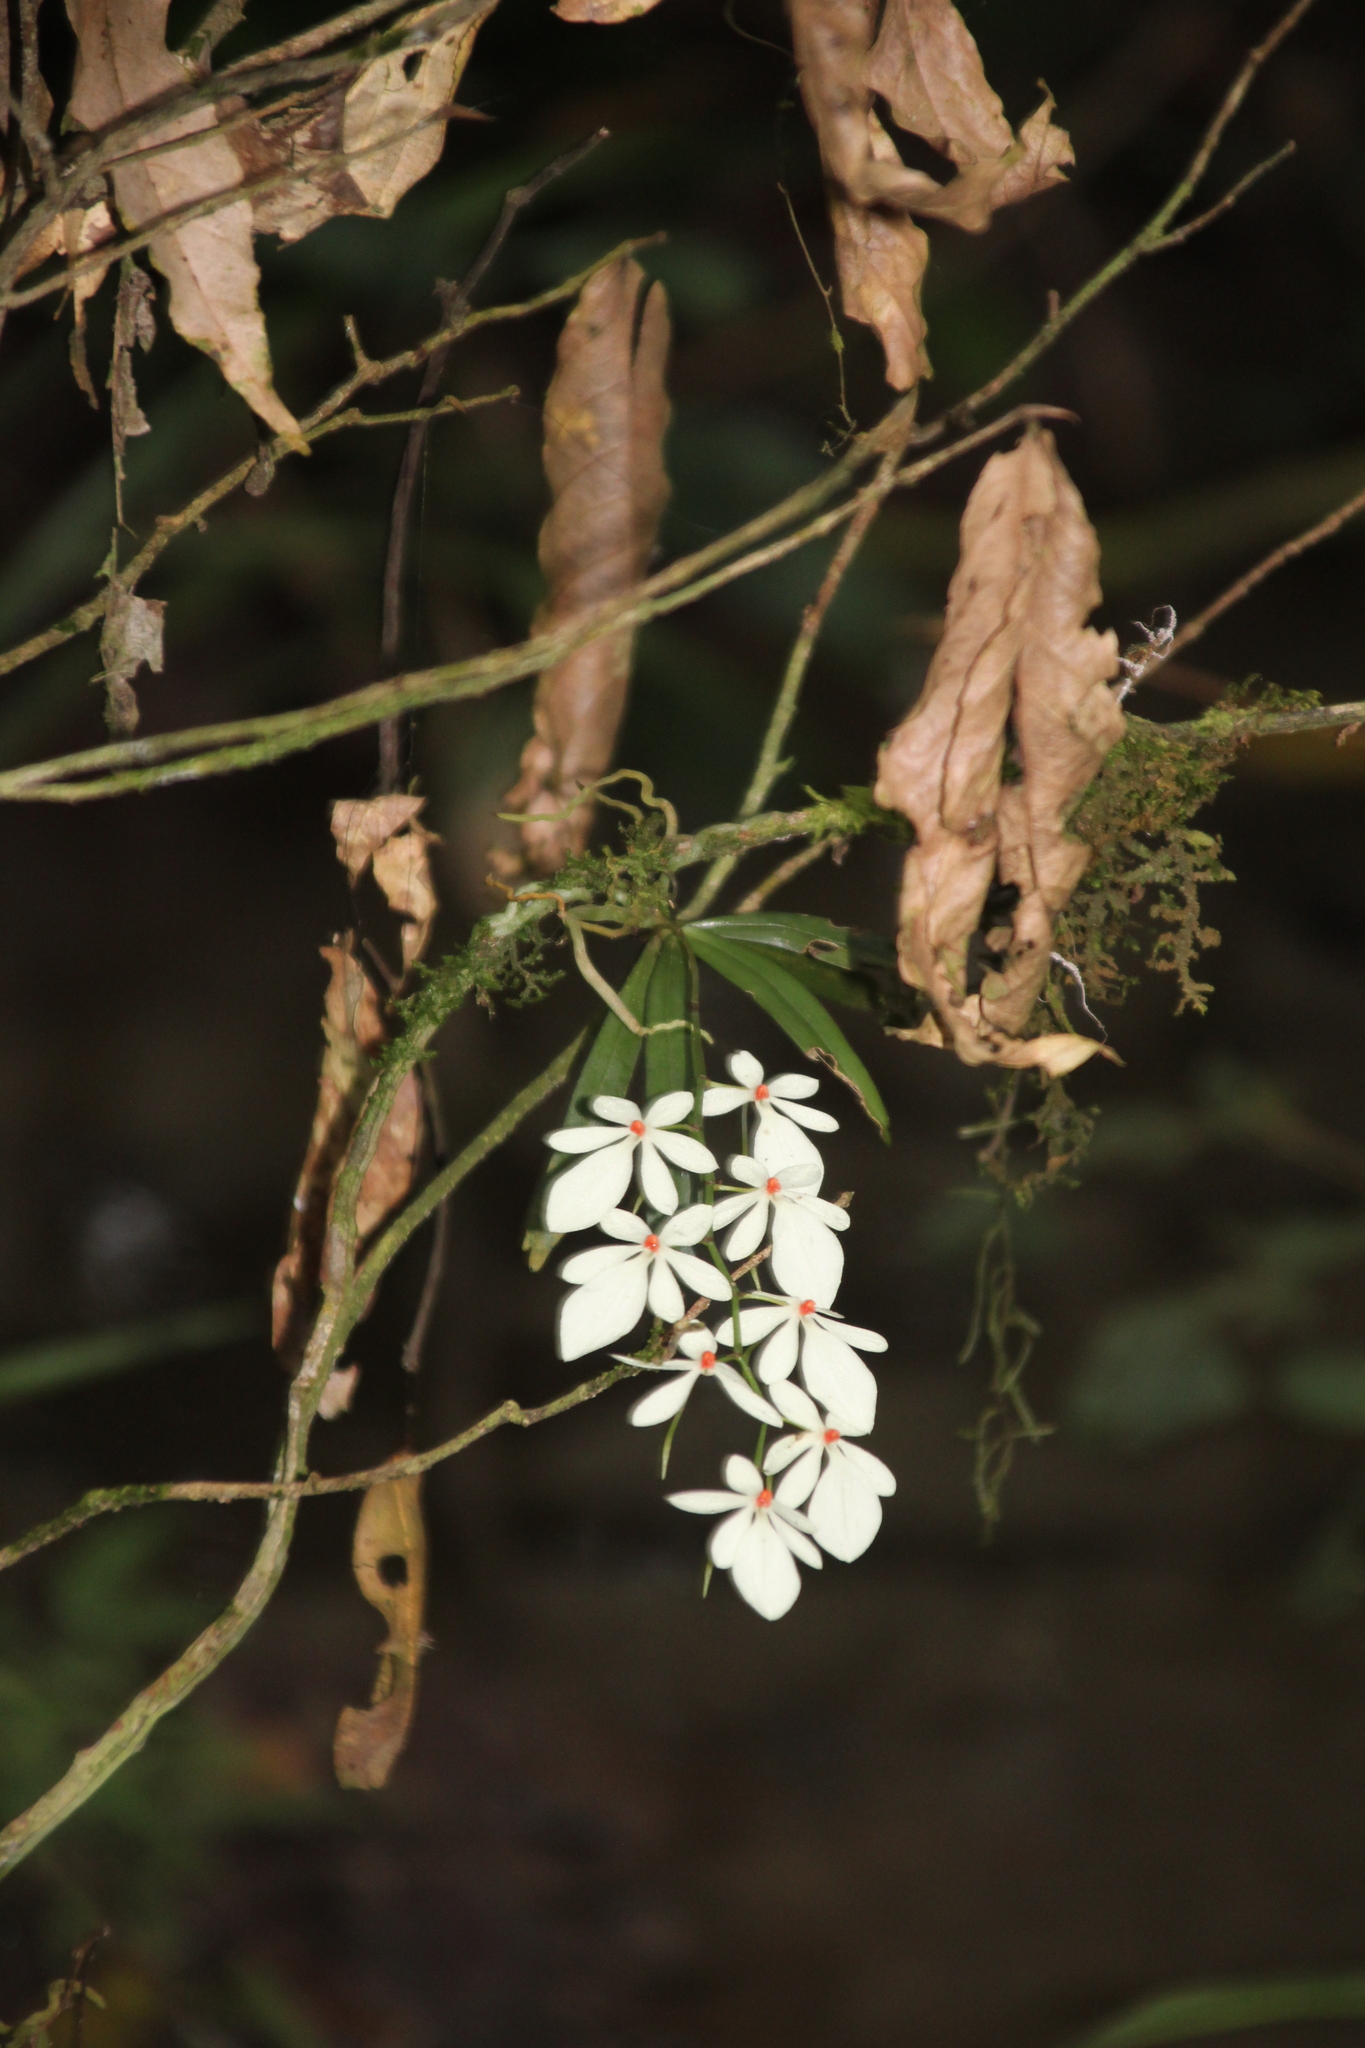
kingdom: Plantae
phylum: Tracheophyta
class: Liliopsida
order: Asparagales
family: Orchidaceae
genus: Aerangis
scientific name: Aerangis luteoalba
